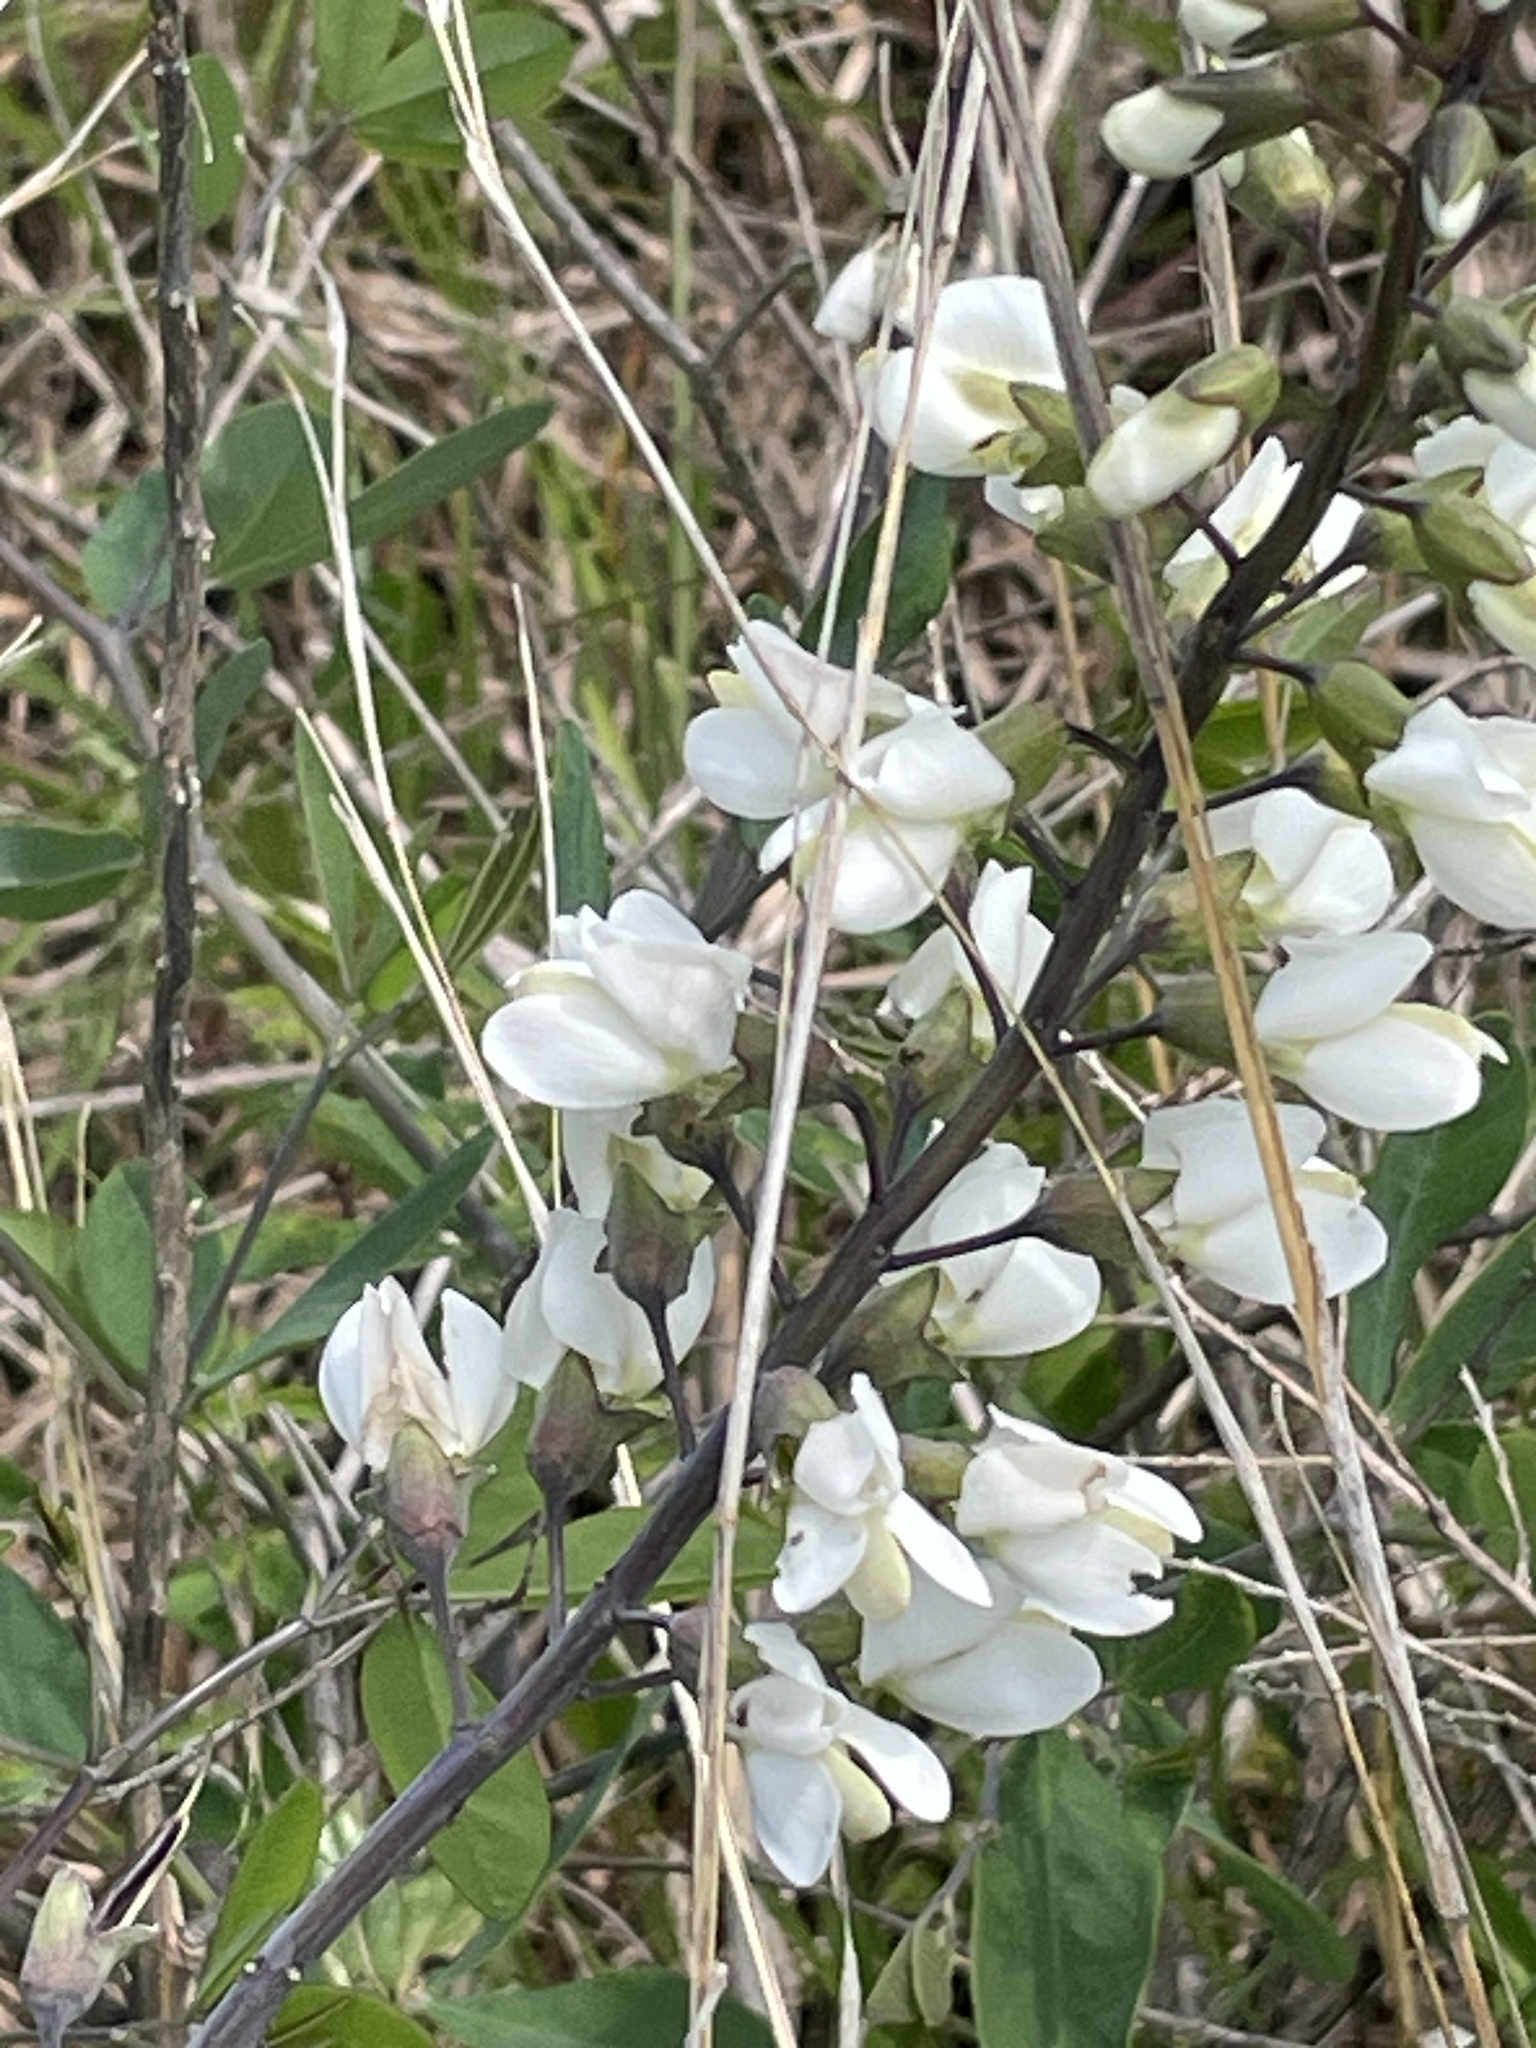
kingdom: Plantae
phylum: Tracheophyta
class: Magnoliopsida
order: Fabales
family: Fabaceae
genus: Baptisia
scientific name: Baptisia alba
